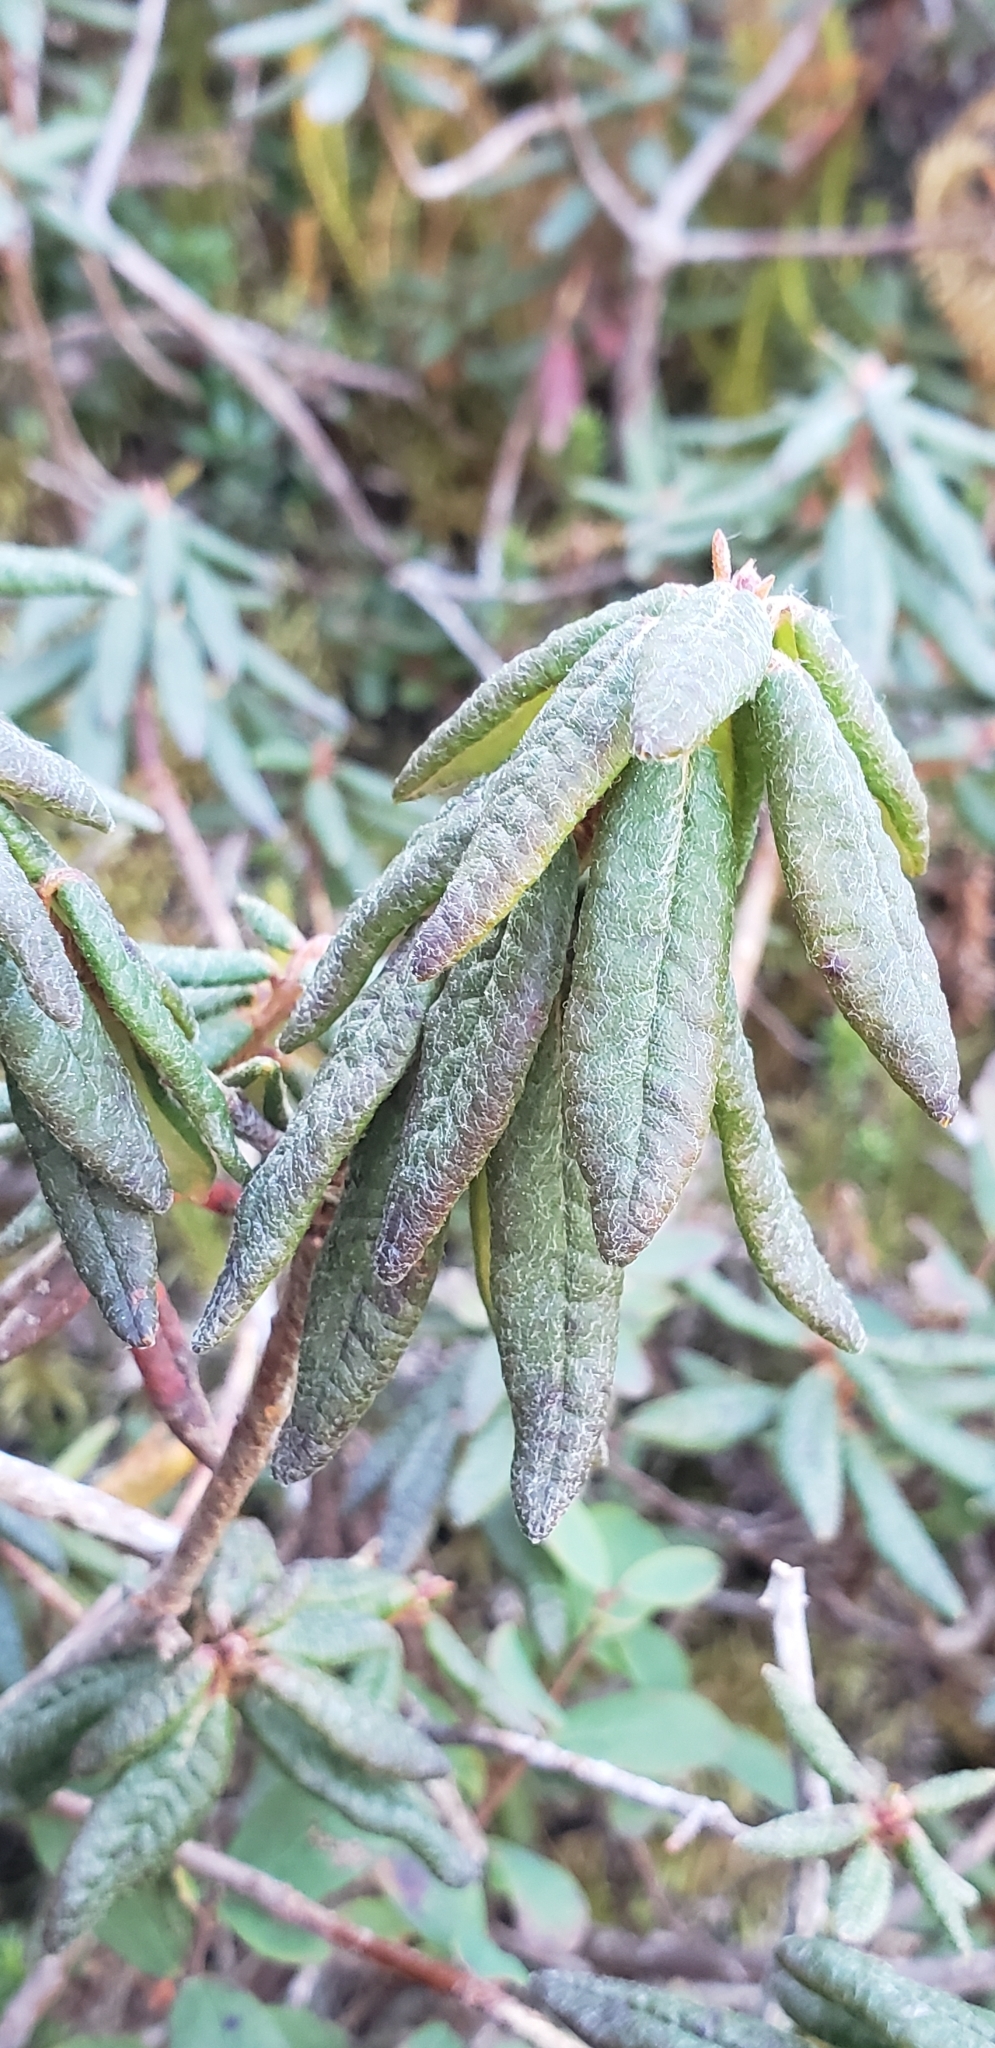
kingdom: Plantae
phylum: Tracheophyta
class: Magnoliopsida
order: Ericales
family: Ericaceae
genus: Rhododendron
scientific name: Rhododendron groenlandicum
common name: Bog labrador tea
